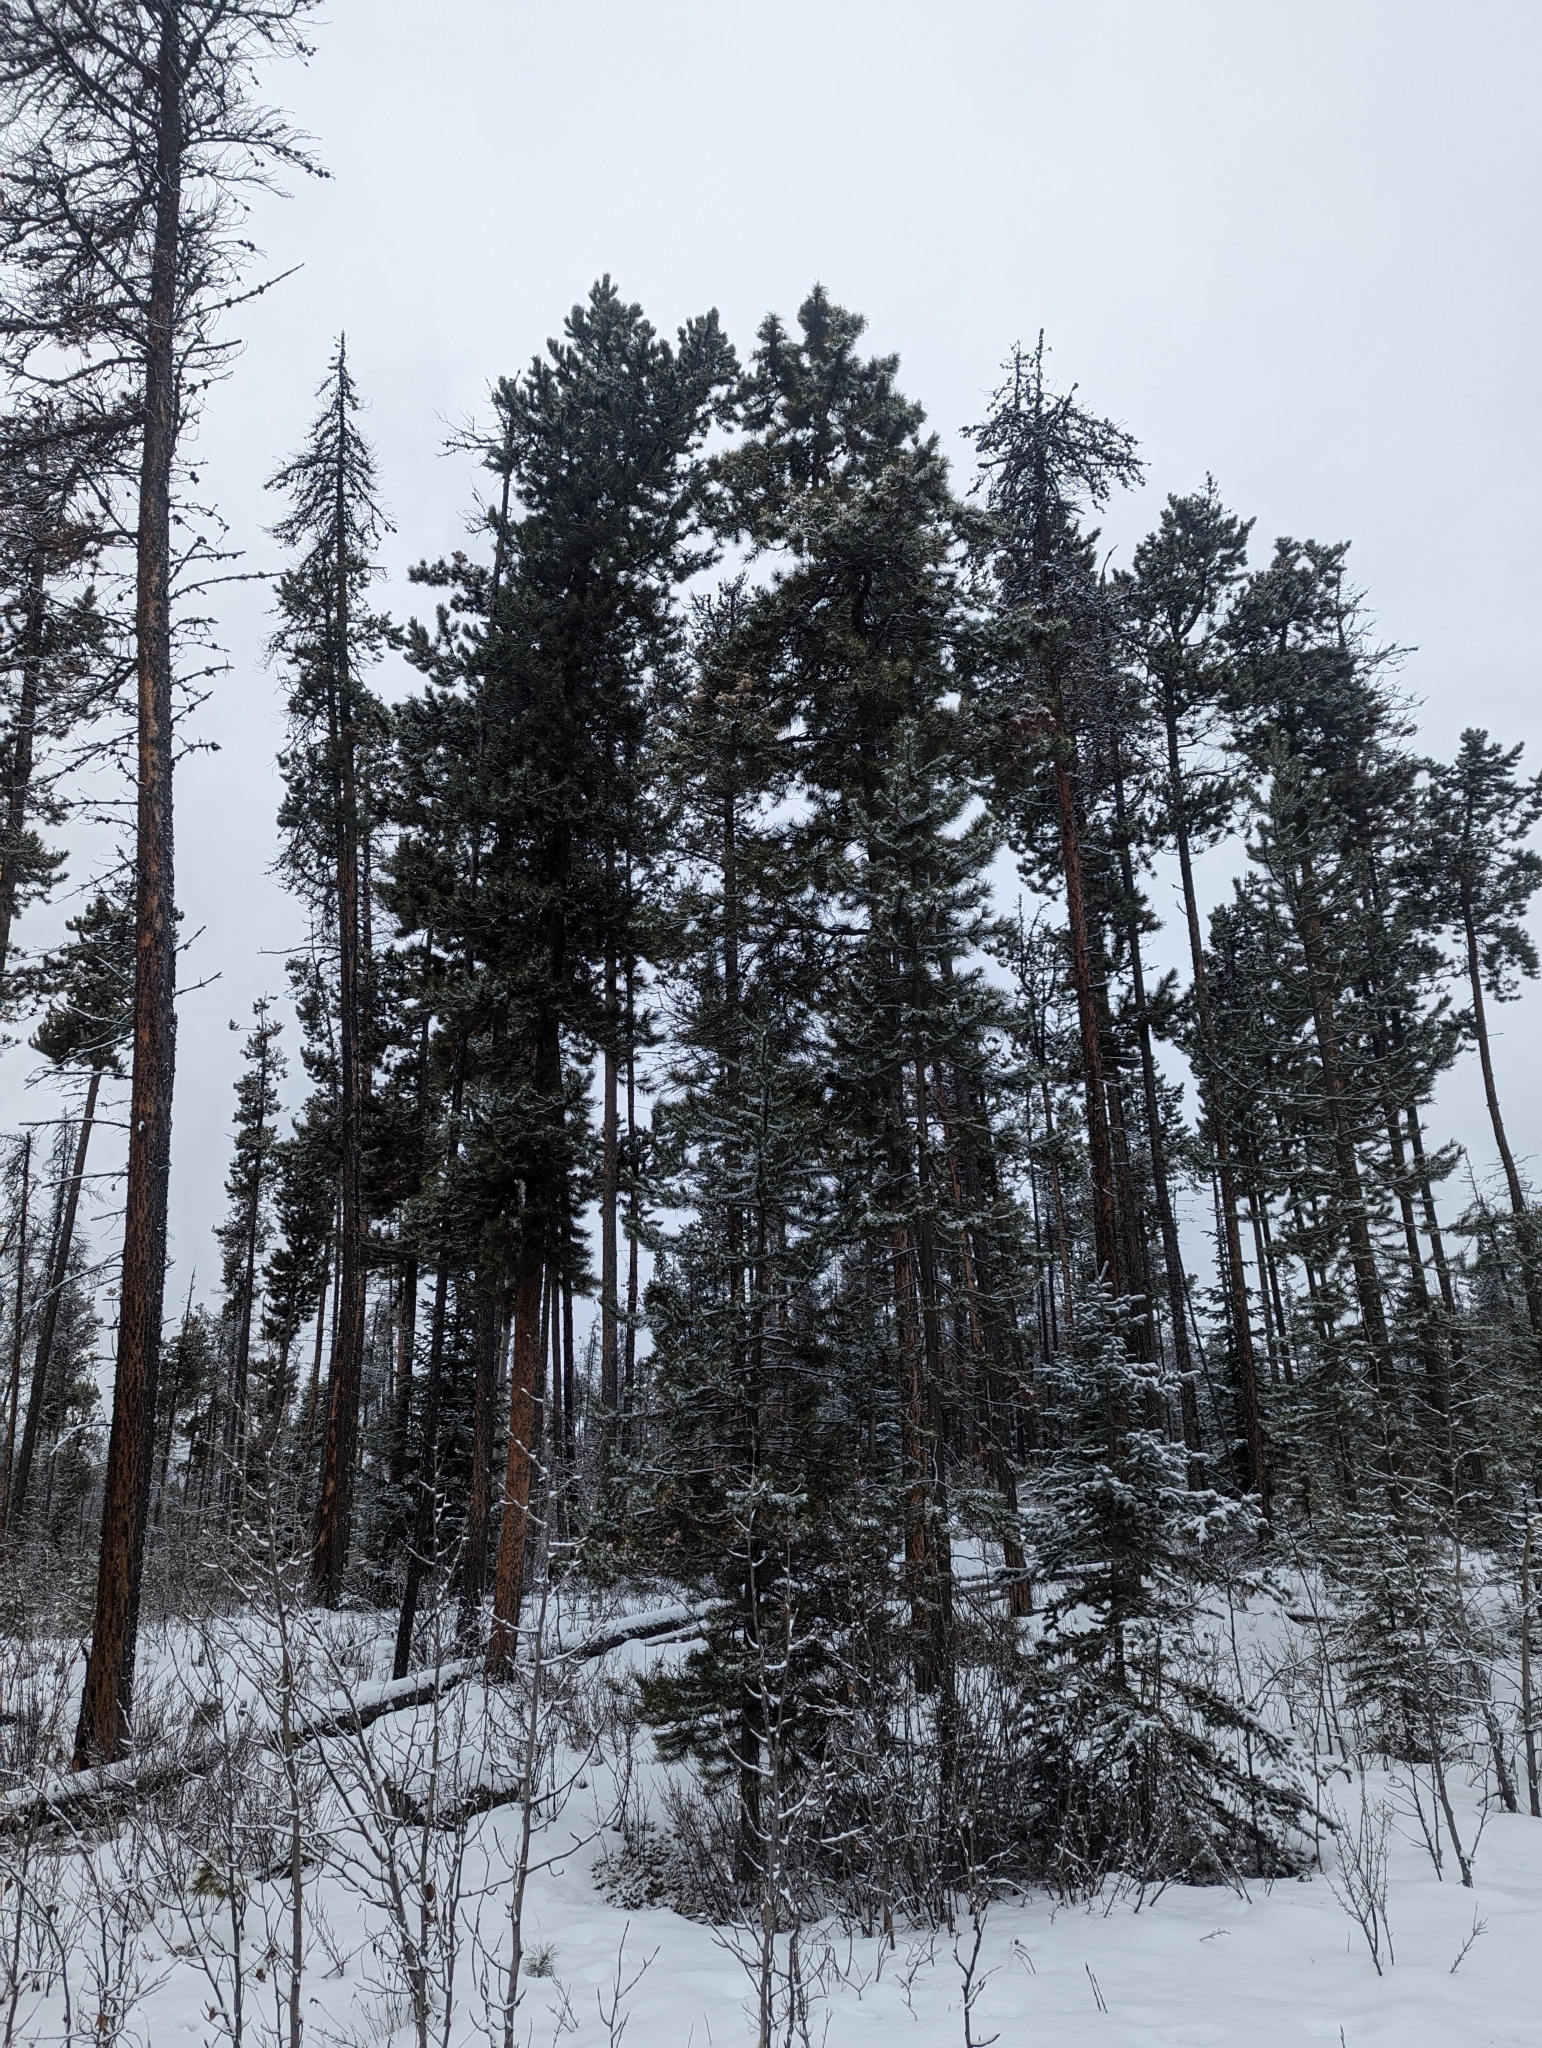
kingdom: Plantae
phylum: Tracheophyta
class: Pinopsida
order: Pinales
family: Pinaceae
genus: Pinus
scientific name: Pinus contorta
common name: Lodgepole pine
